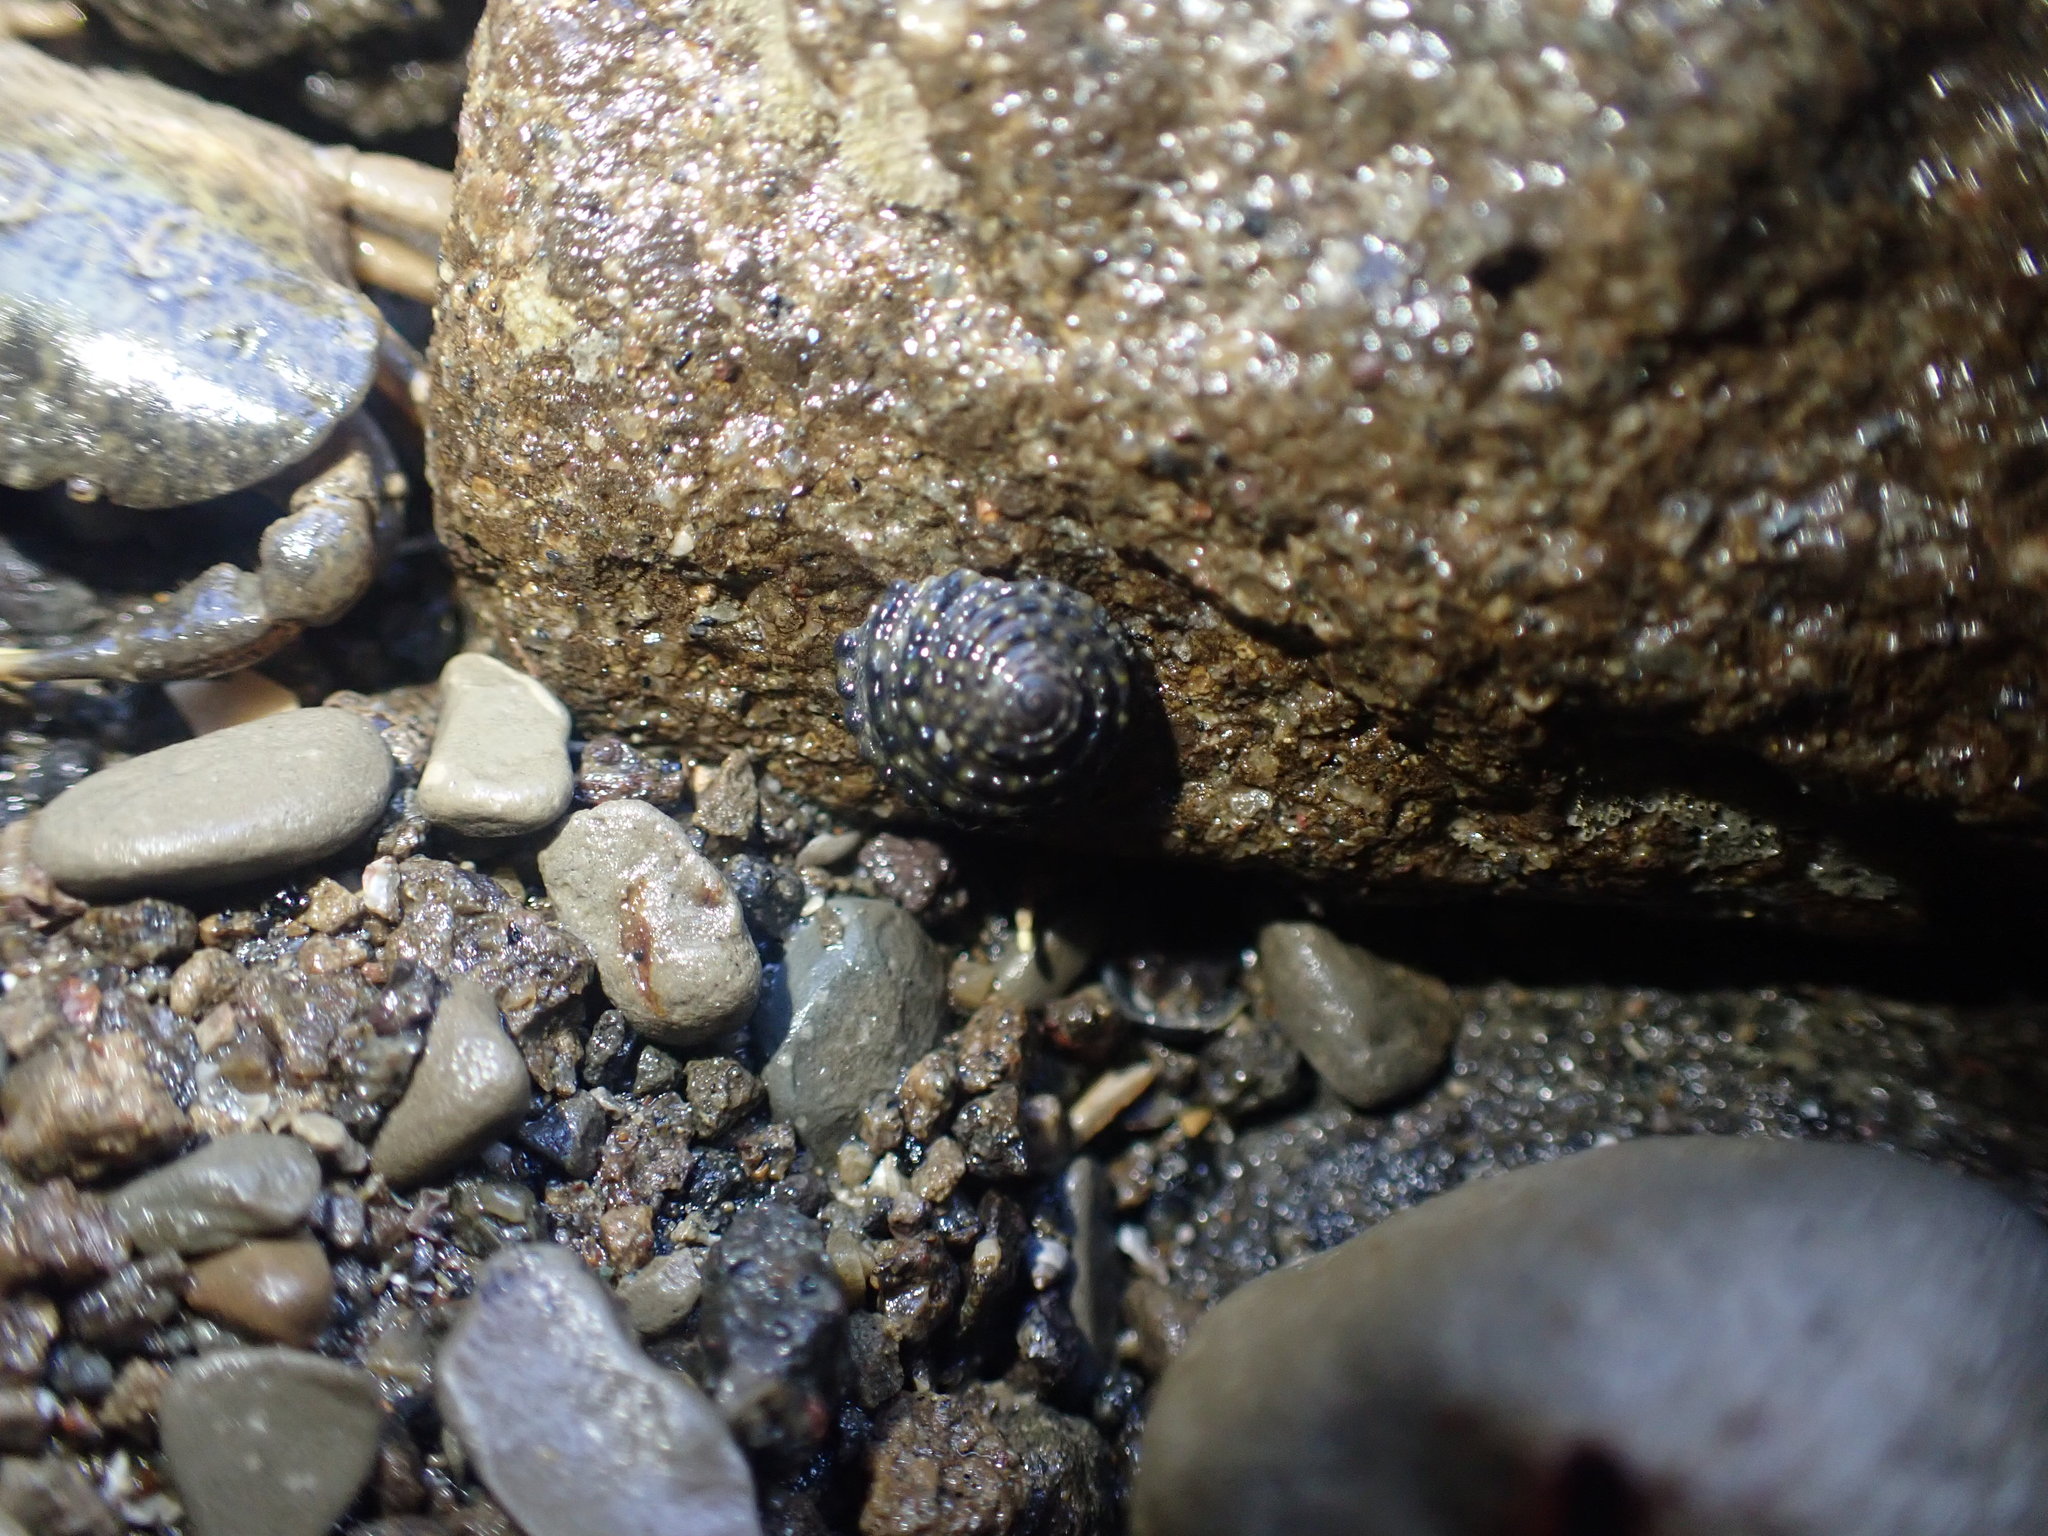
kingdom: Animalia
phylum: Mollusca
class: Gastropoda
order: Trochida
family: Trochidae
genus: Diloma
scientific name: Diloma bicanaliculatum
